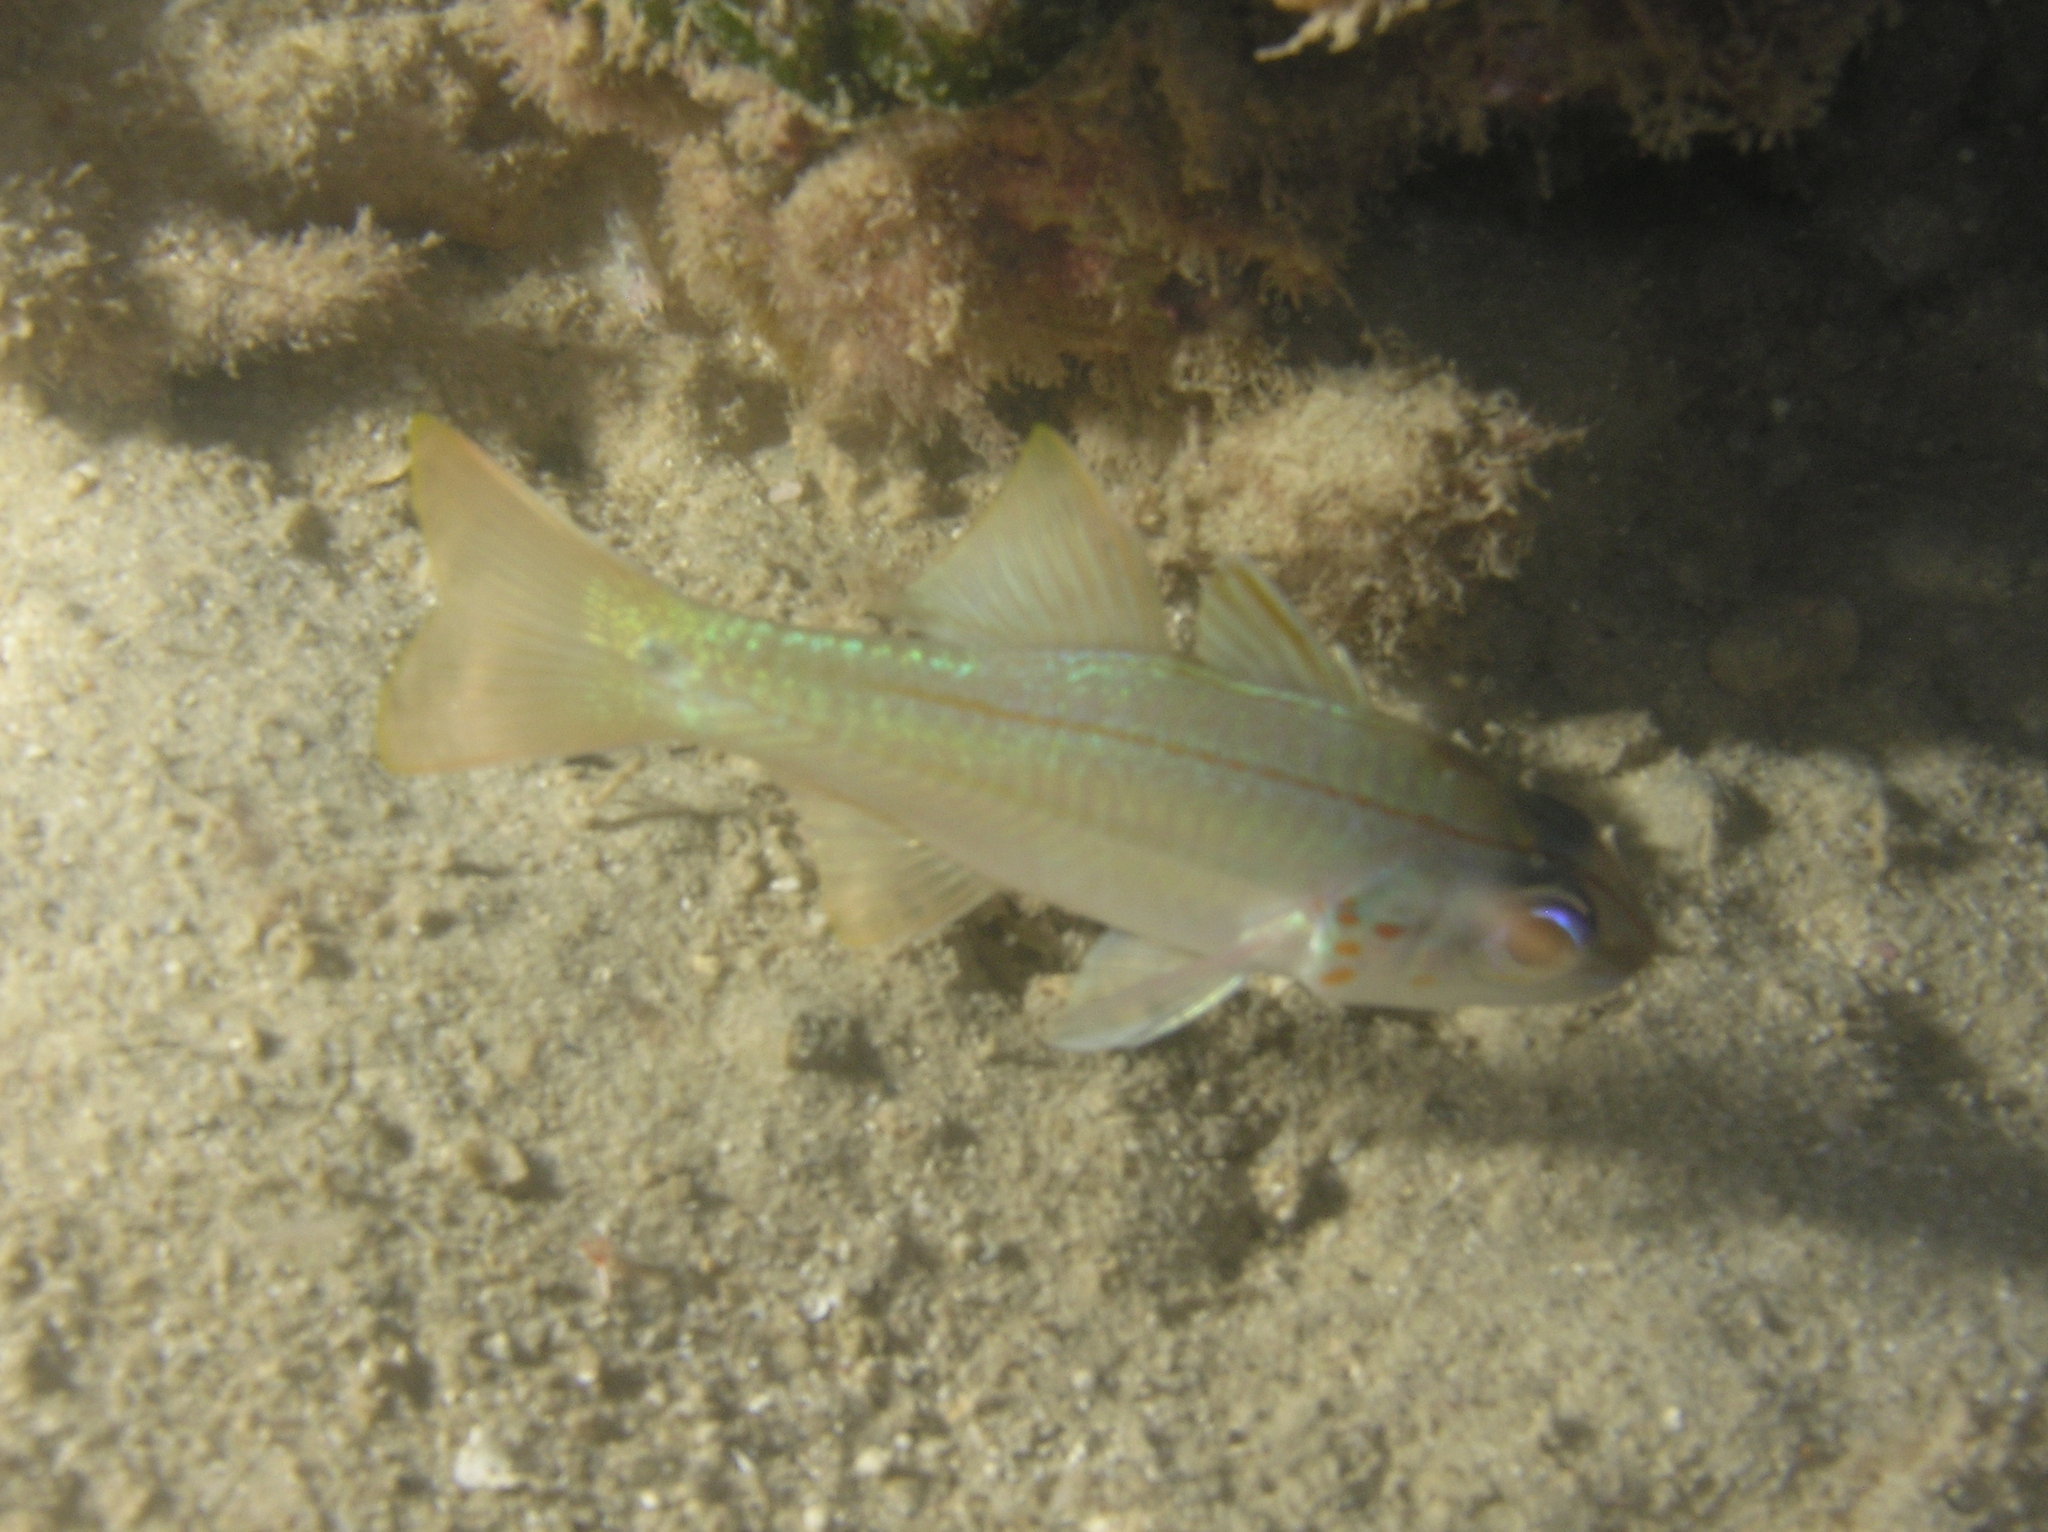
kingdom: Animalia
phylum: Chordata
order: Perciformes
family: Apogonidae
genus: Ostorhinchus
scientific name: Ostorhinchus chrysopomus
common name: Cheek-spot cardinalfish
